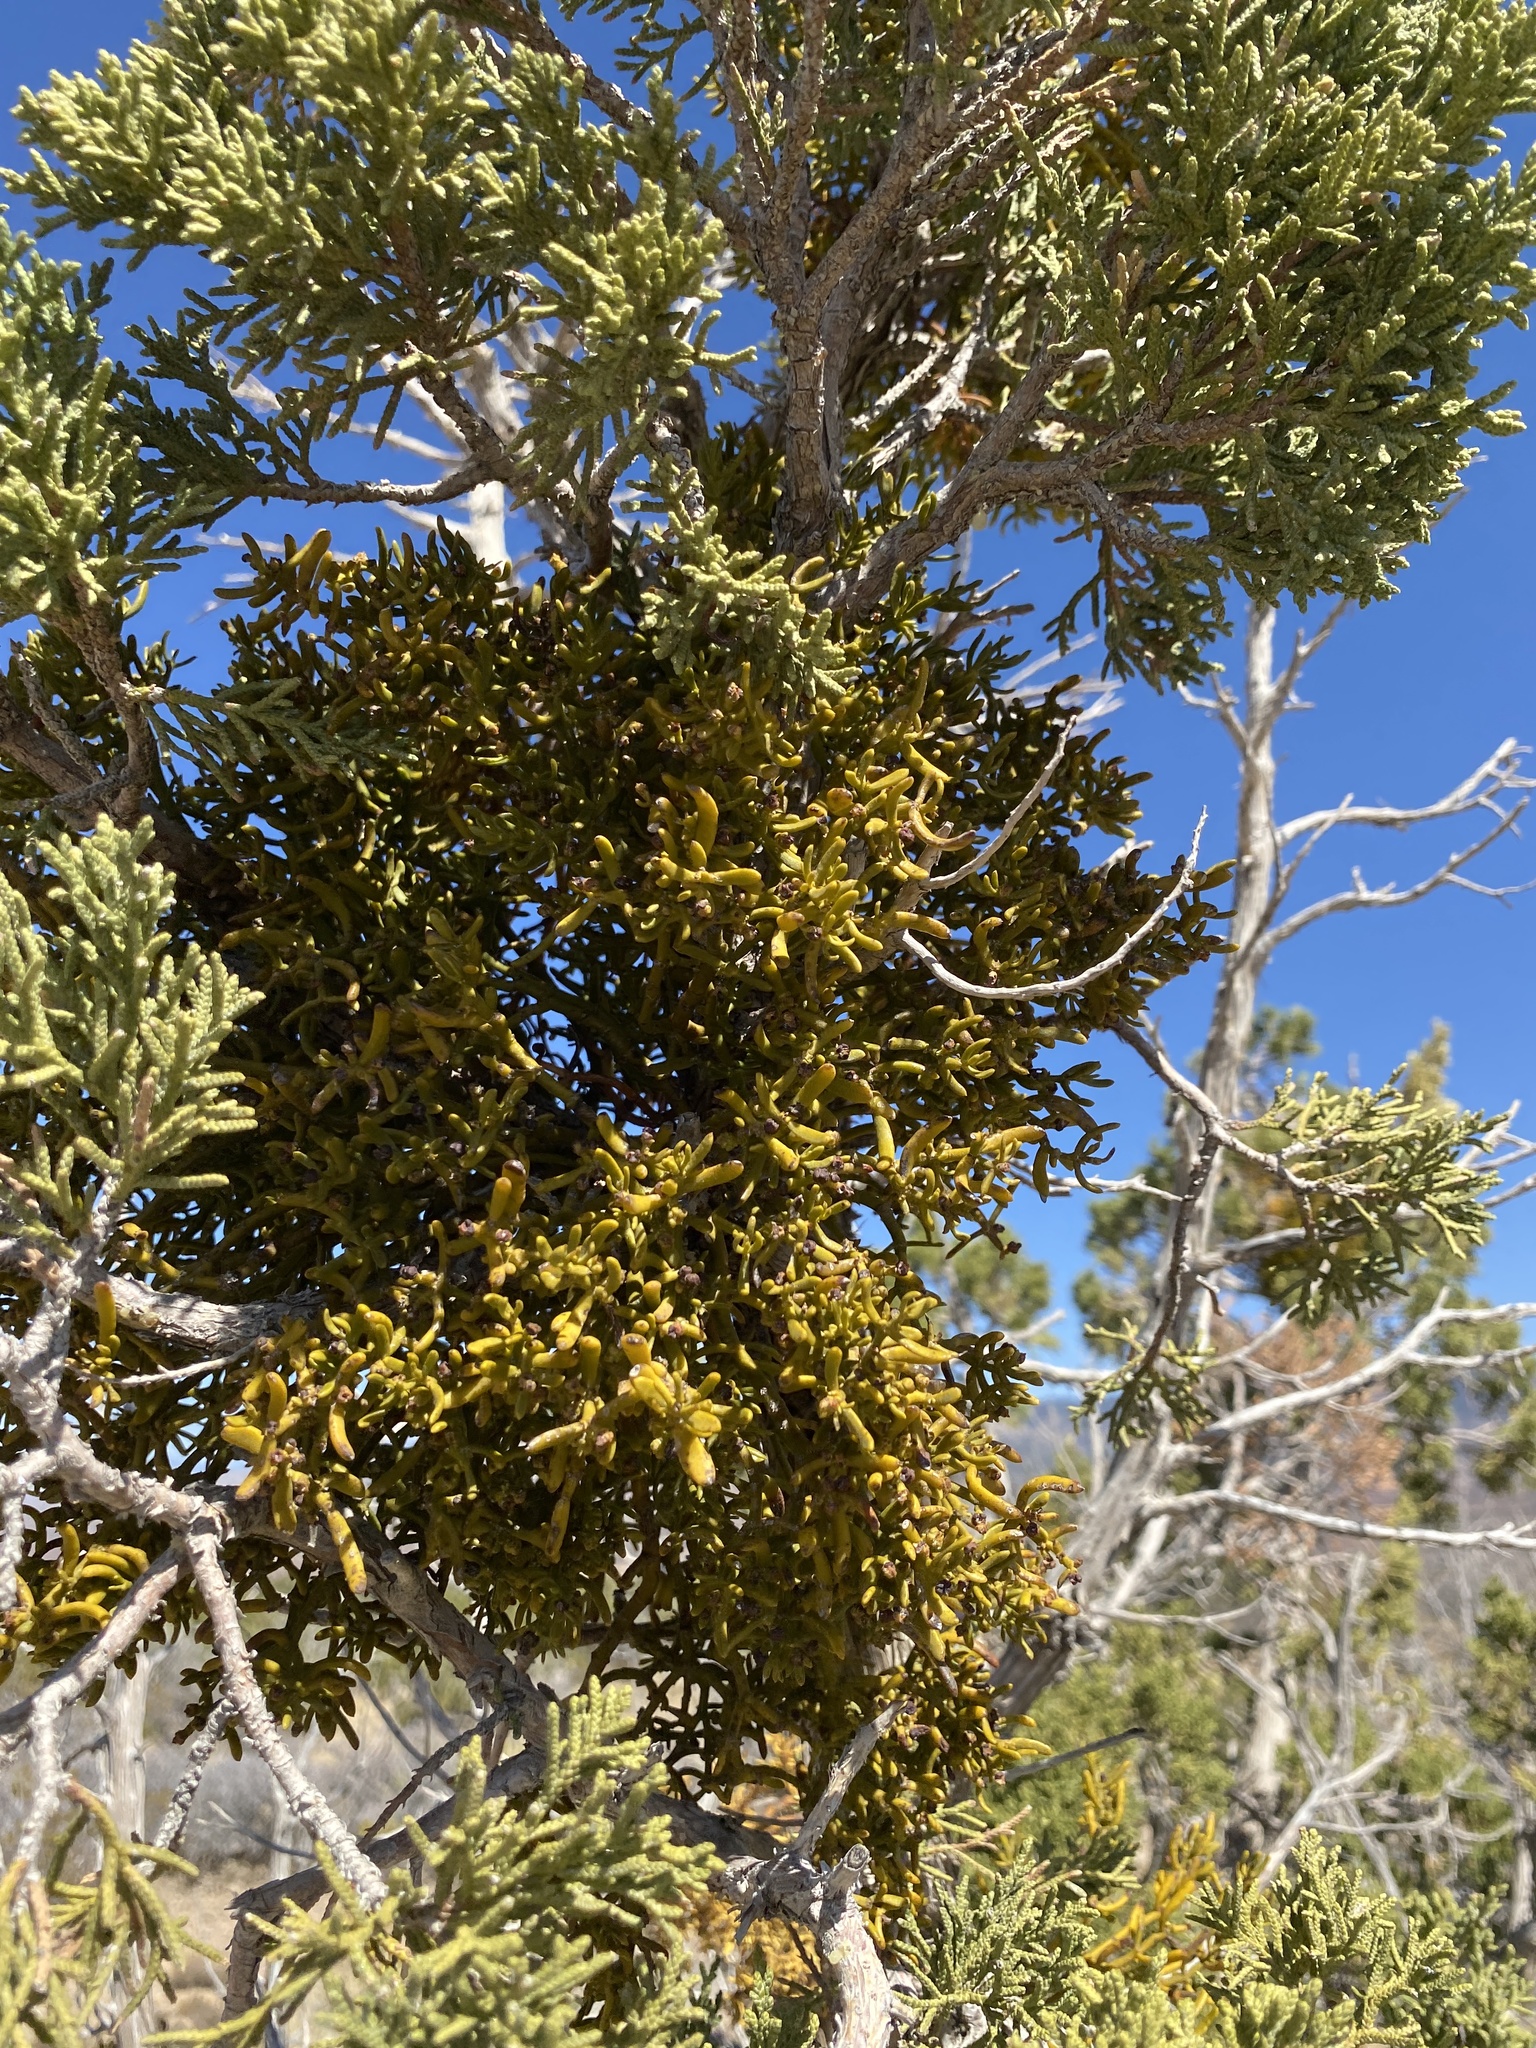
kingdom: Plantae
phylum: Tracheophyta
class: Magnoliopsida
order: Santalales
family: Viscaceae
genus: Phoradendron
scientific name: Phoradendron hawksworthii
